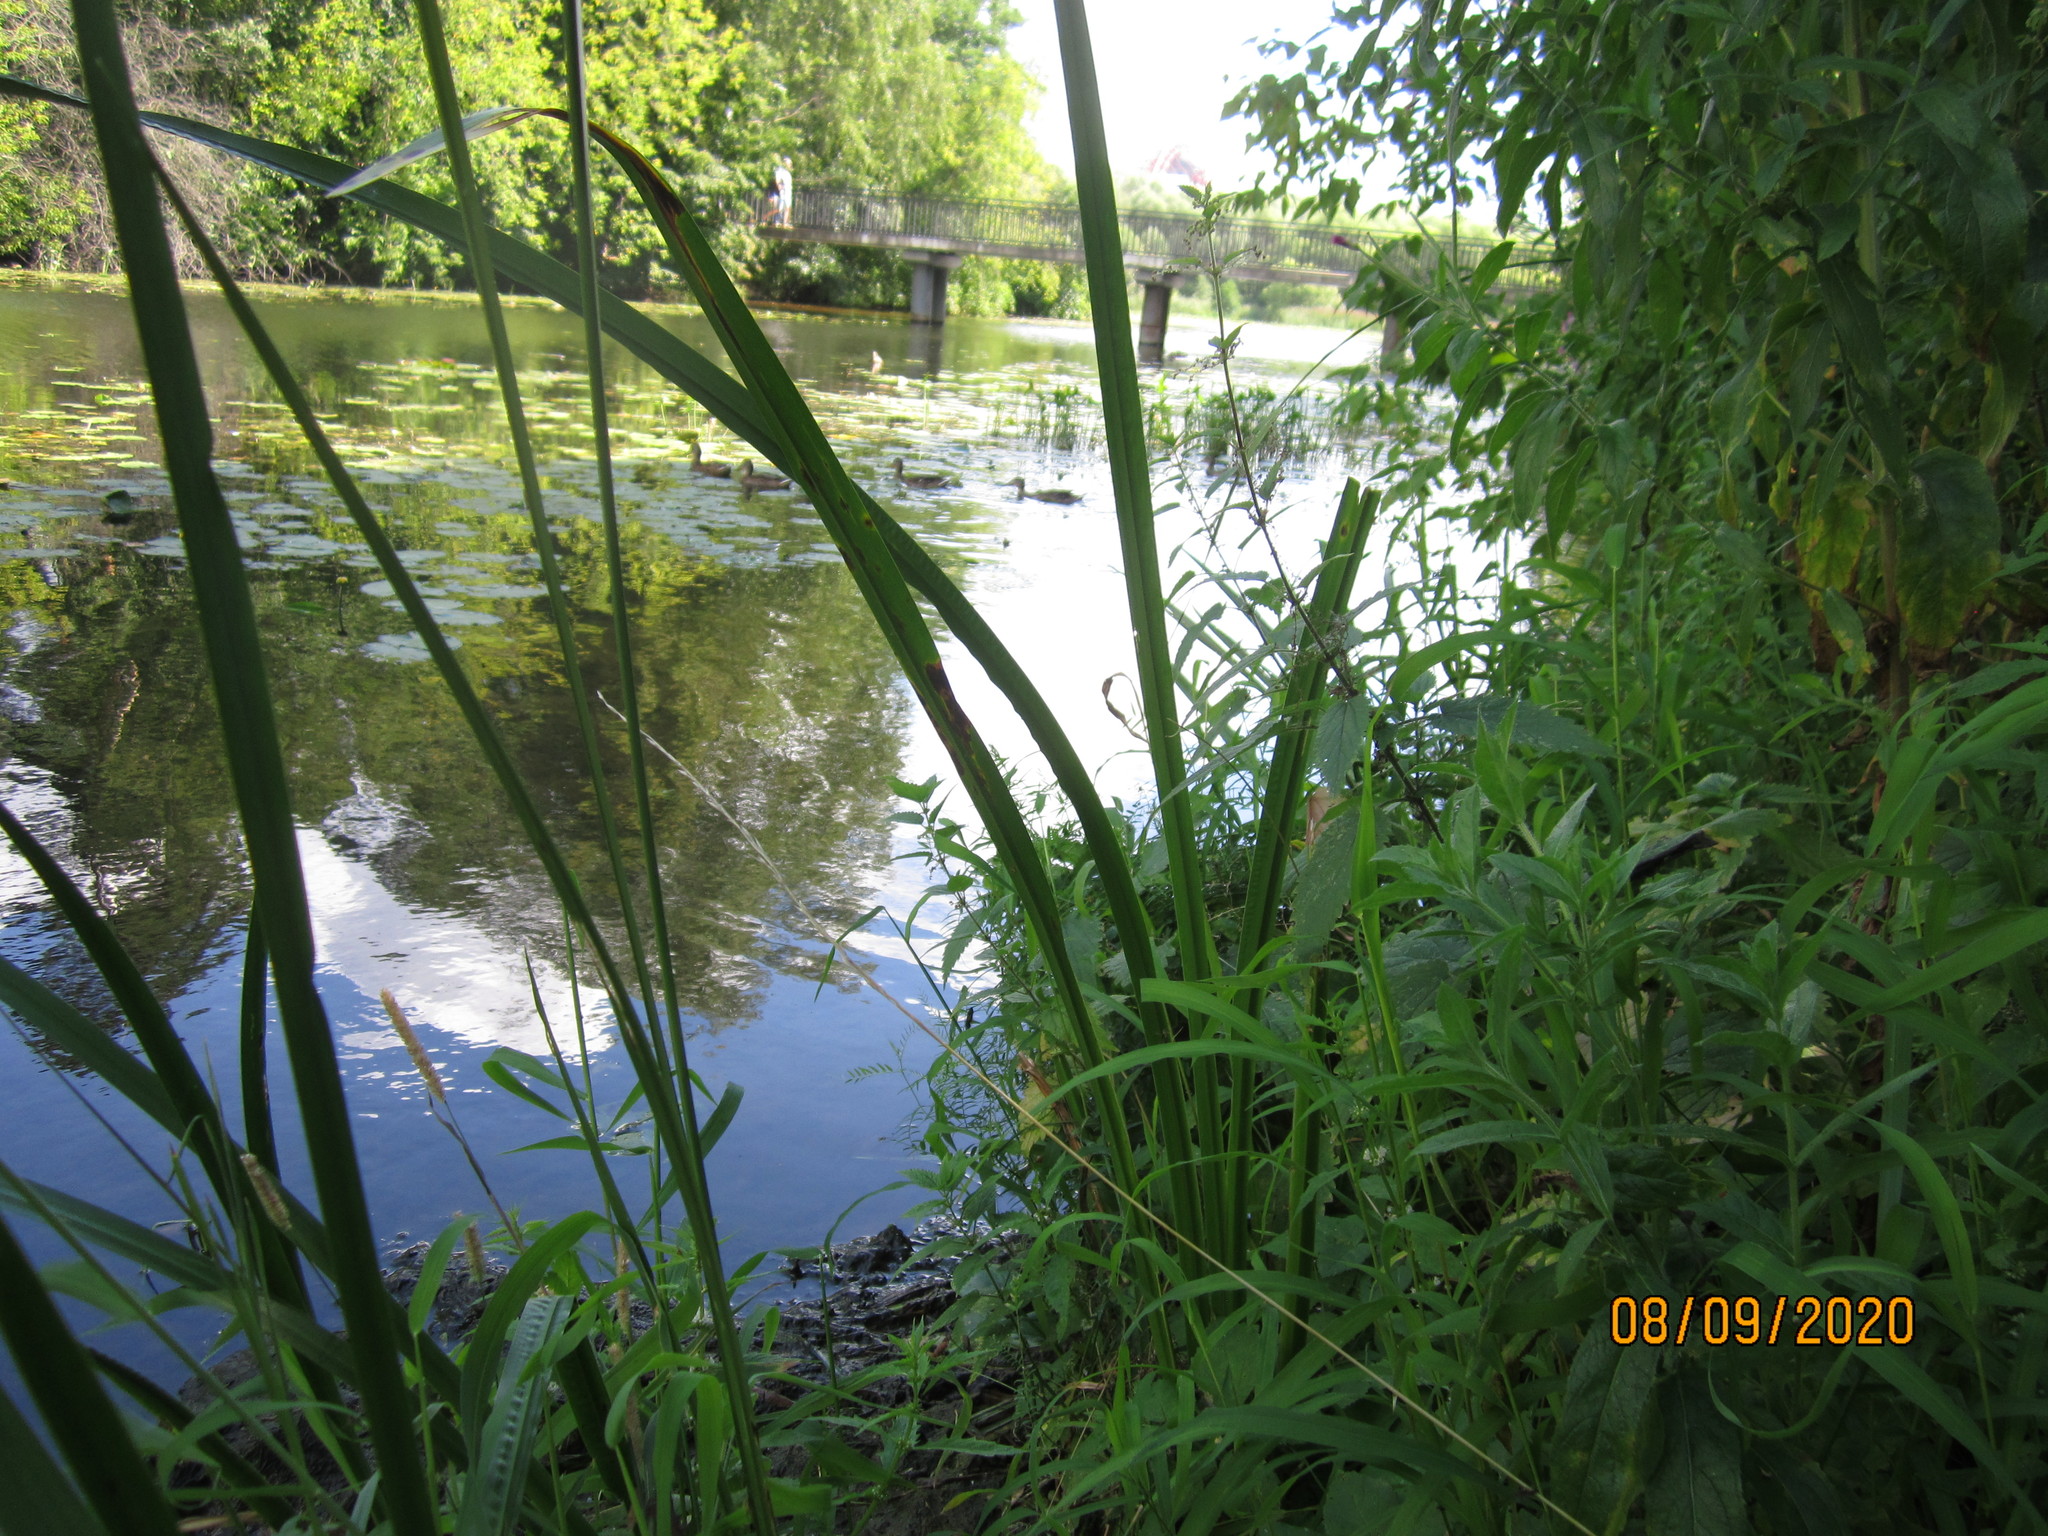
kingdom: Plantae
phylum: Tracheophyta
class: Liliopsida
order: Acorales
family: Acoraceae
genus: Acorus
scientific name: Acorus calamus
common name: Sweet-flag
